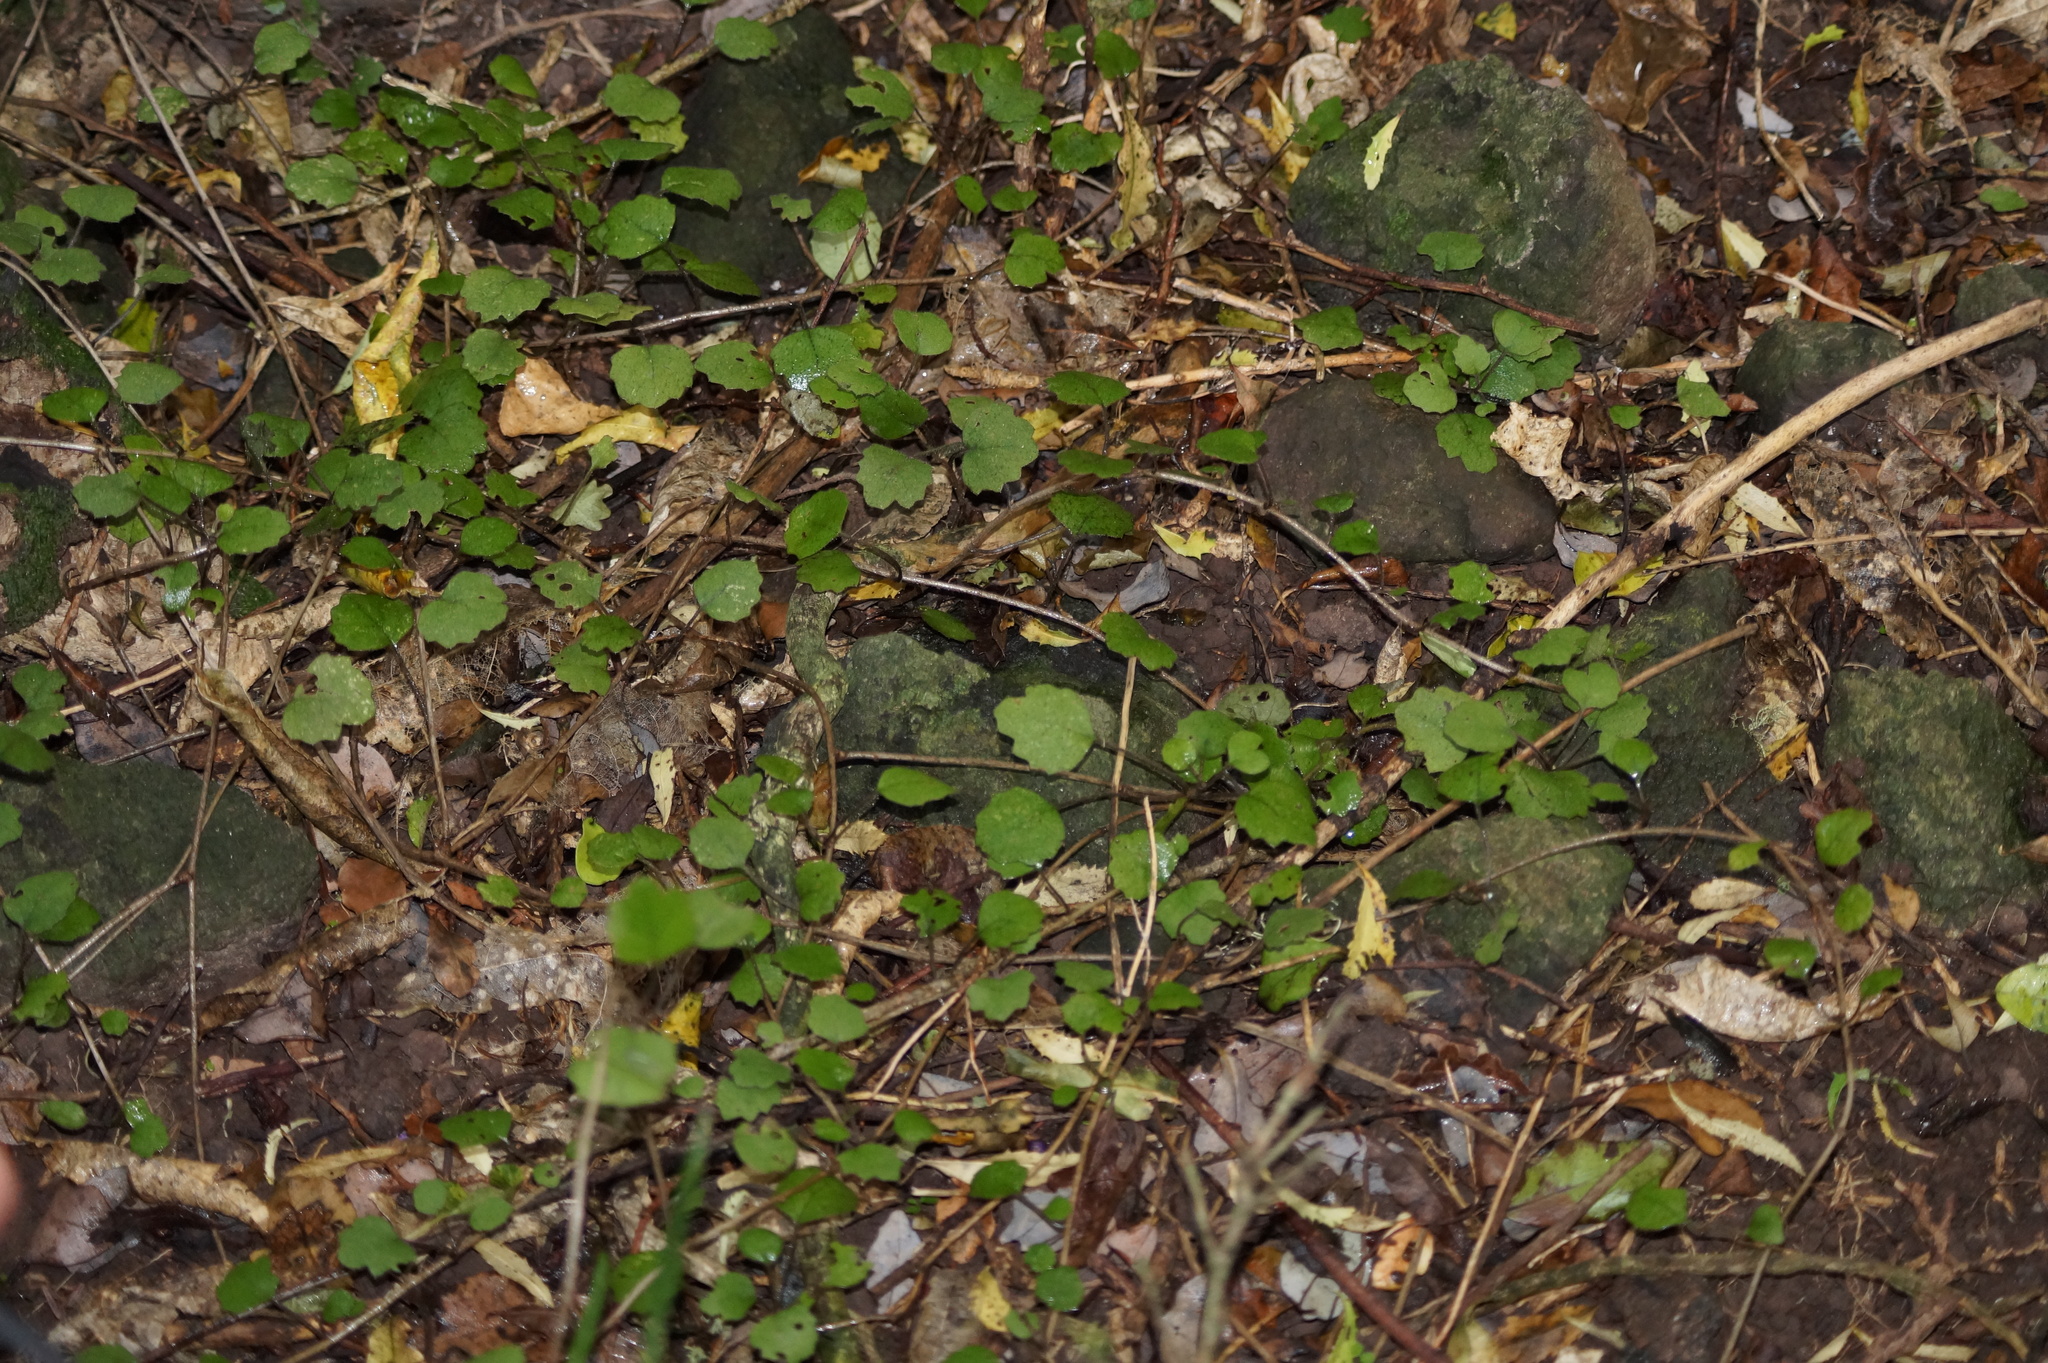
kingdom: Plantae
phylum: Tracheophyta
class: Magnoliopsida
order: Asterales
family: Asteraceae
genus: Brachyglottis
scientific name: Brachyglottis sciadophila
